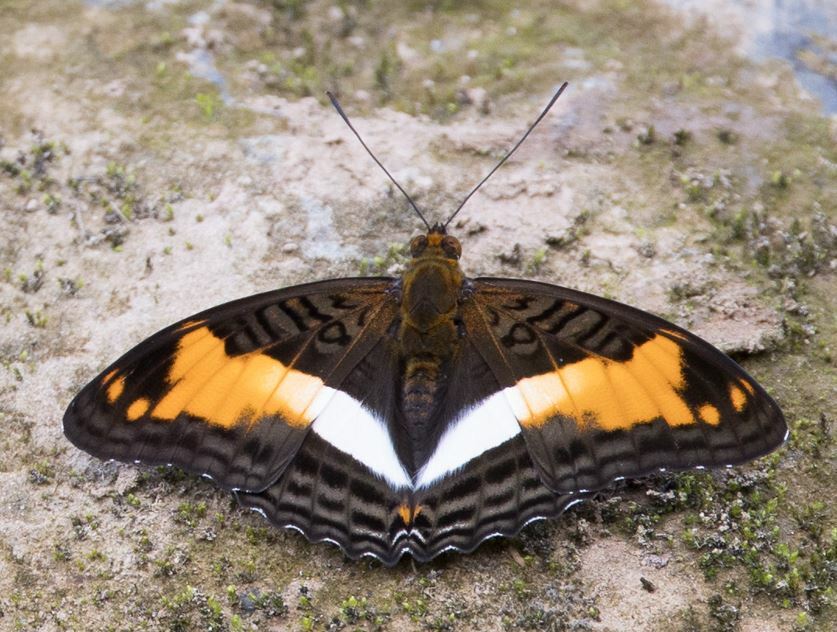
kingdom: Animalia
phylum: Arthropoda
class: Insecta
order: Lepidoptera
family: Nymphalidae
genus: Limenitis
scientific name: Limenitis Adelpha erotia
